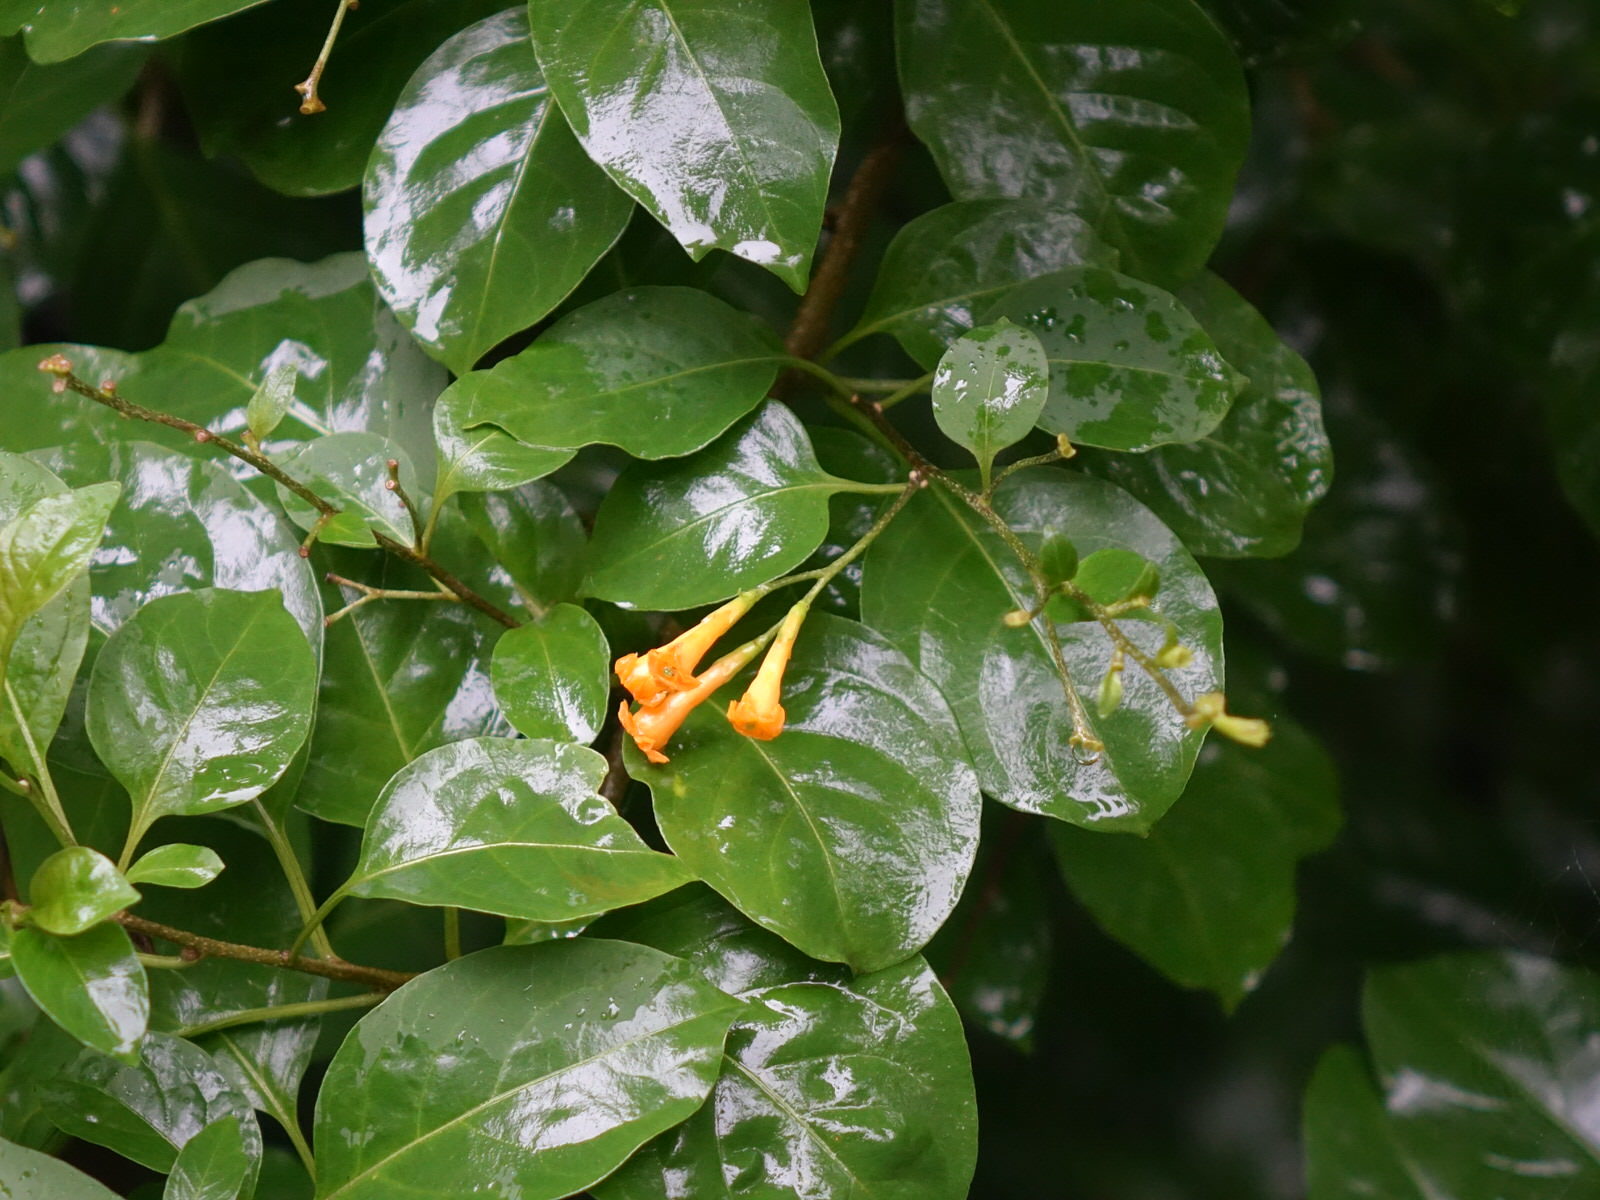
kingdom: Plantae
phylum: Tracheophyta
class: Magnoliopsida
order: Solanales
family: Solanaceae
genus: Cestrum
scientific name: Cestrum aurantiacum
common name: Orange cestrum
